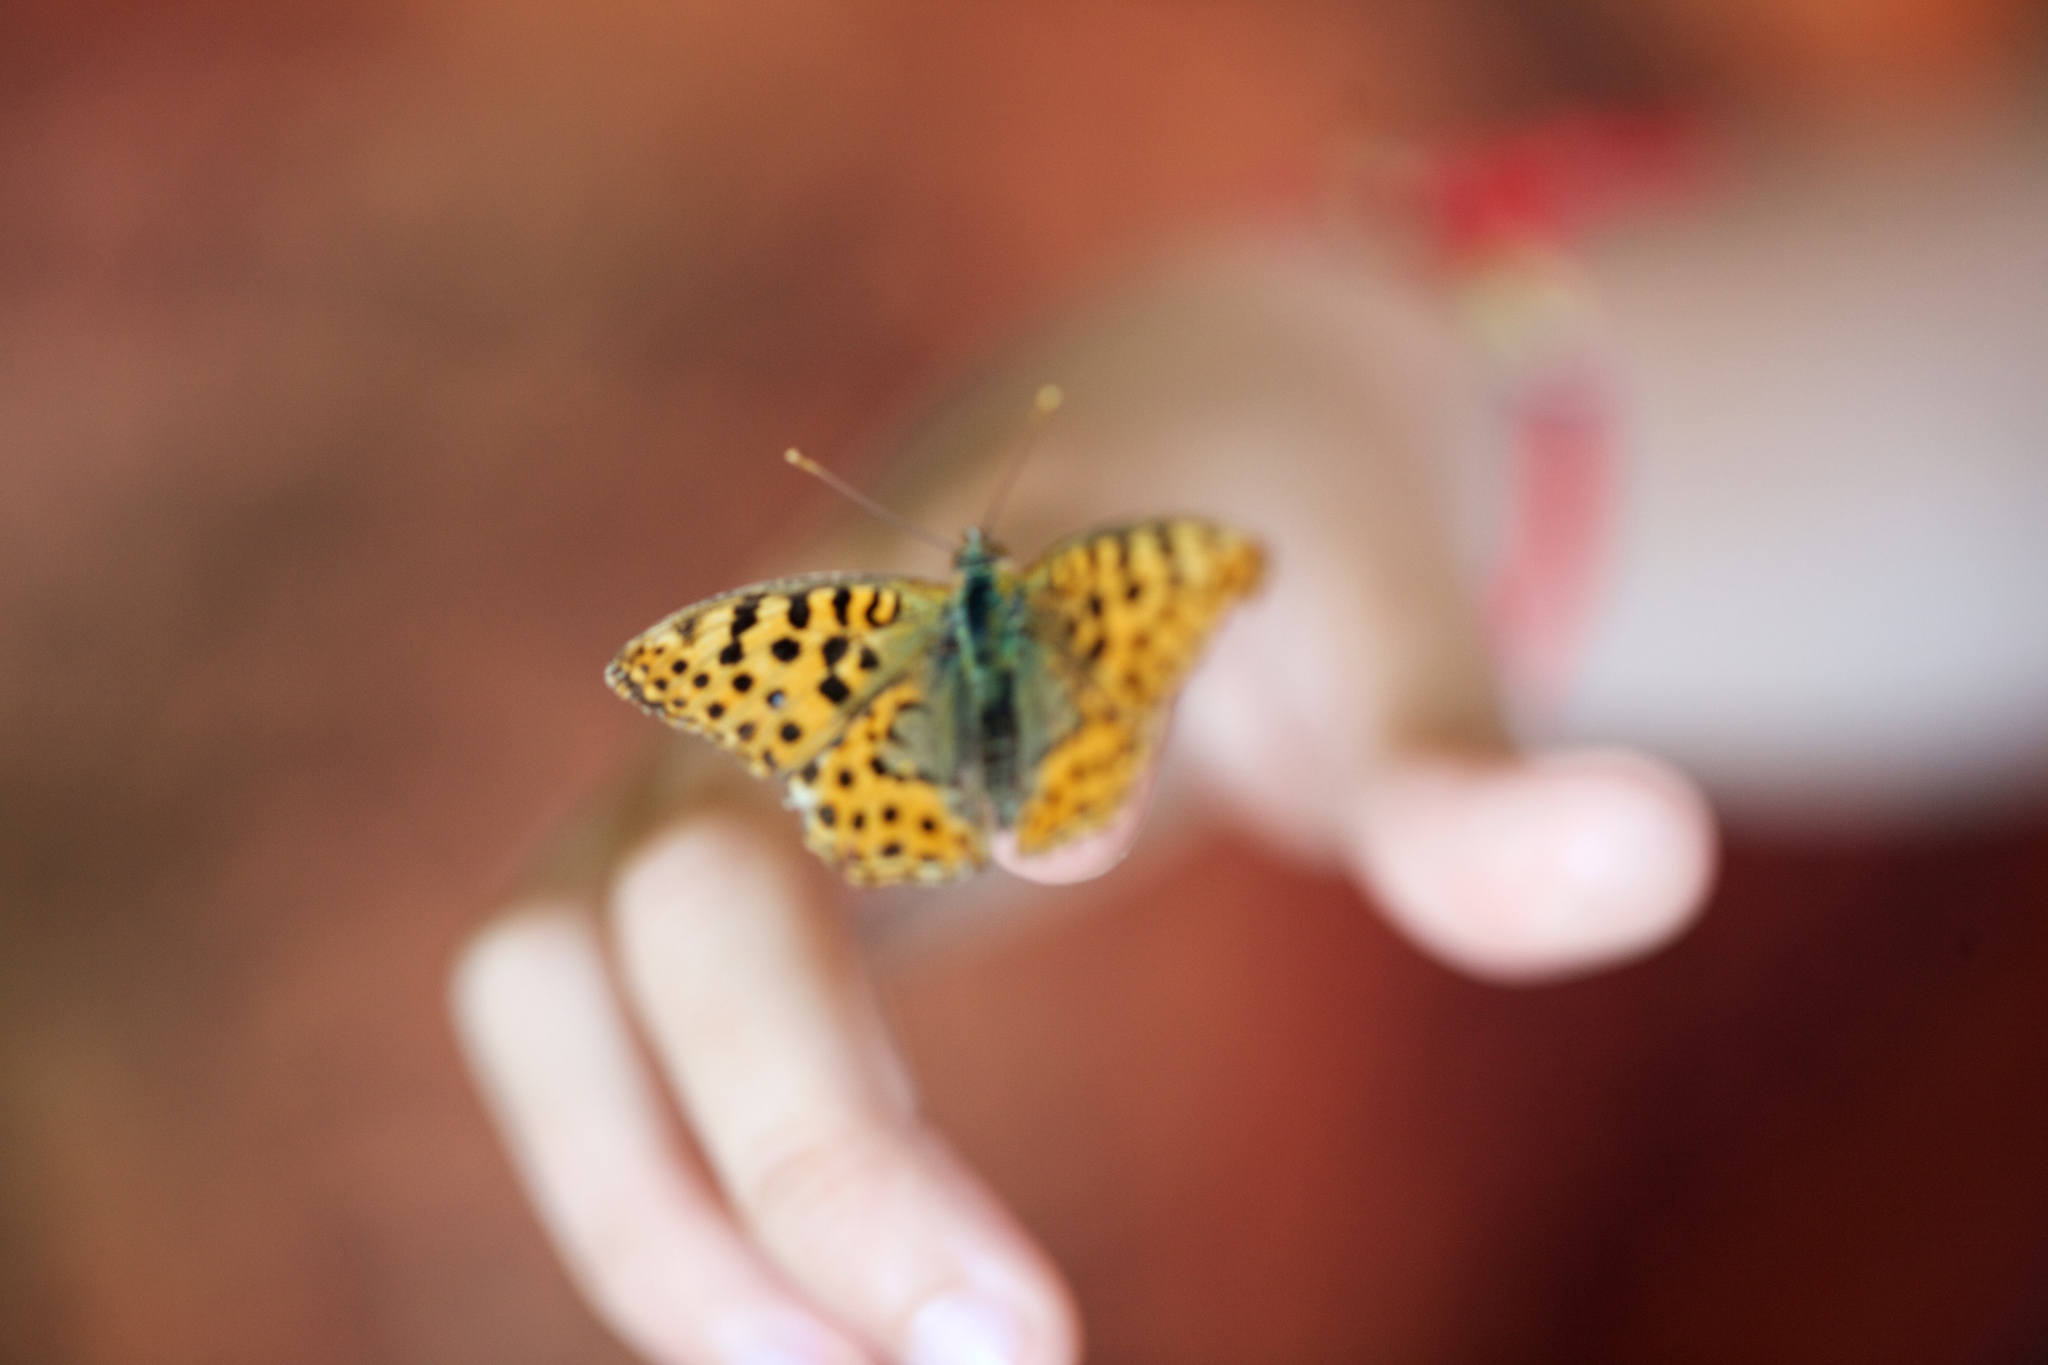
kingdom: Animalia
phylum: Arthropoda
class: Insecta
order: Lepidoptera
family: Nymphalidae
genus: Issoria
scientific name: Issoria lathonia
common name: Queen of spain fritillary
